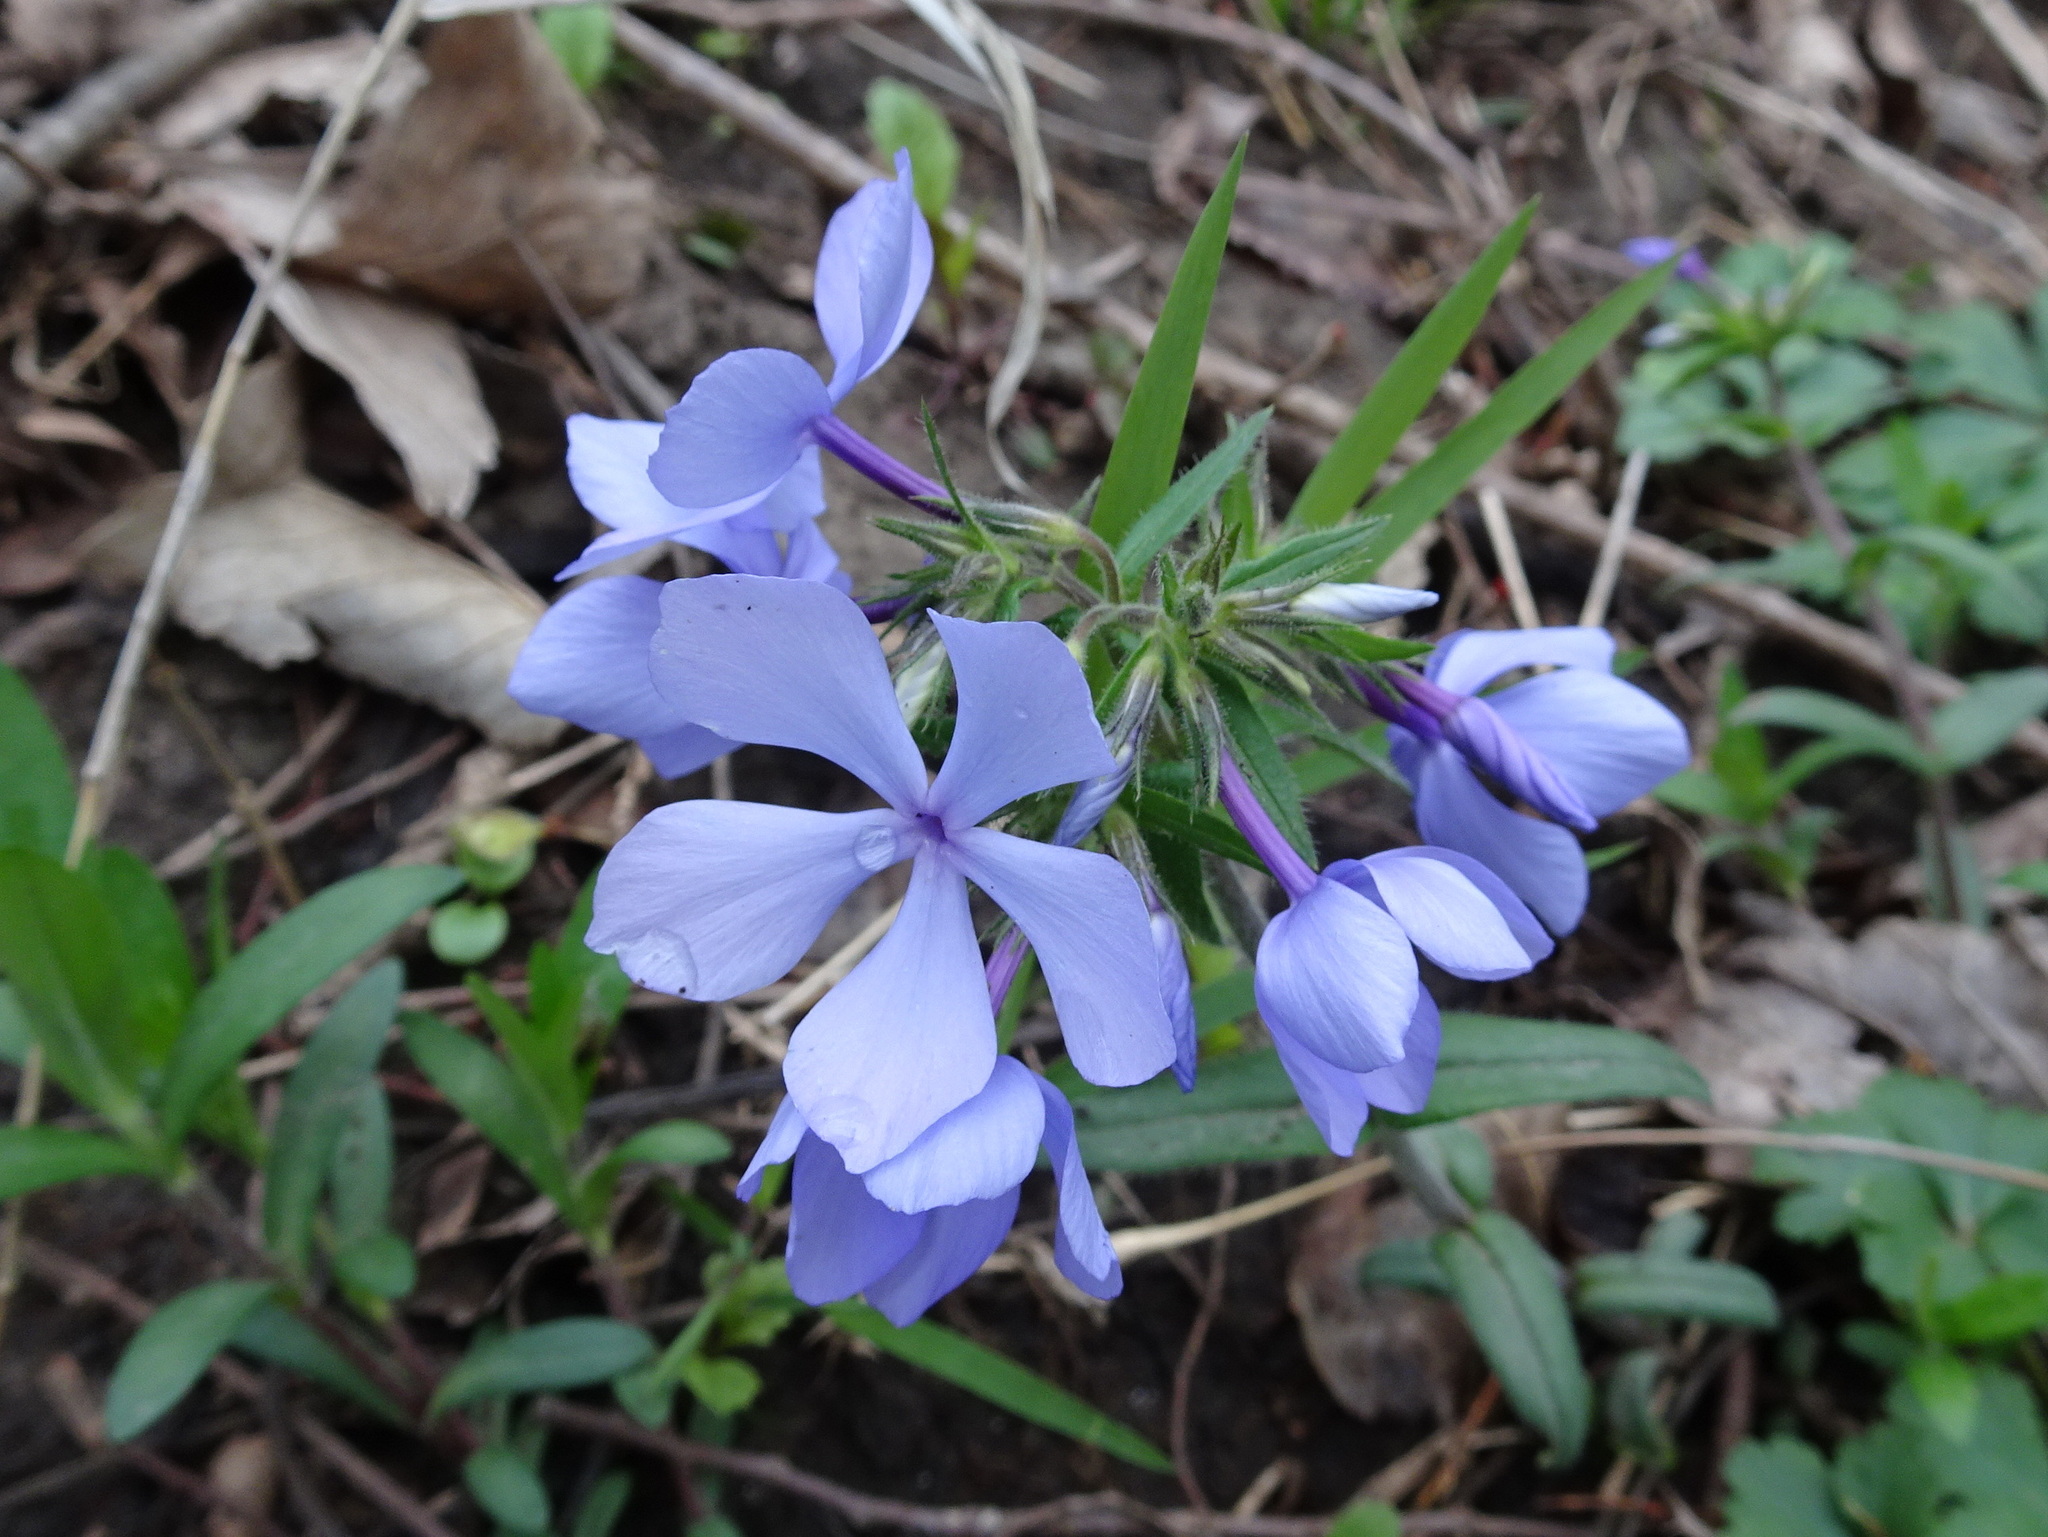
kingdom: Plantae
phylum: Tracheophyta
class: Magnoliopsida
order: Ericales
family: Polemoniaceae
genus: Phlox
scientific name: Phlox divaricata
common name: Blue phlox
